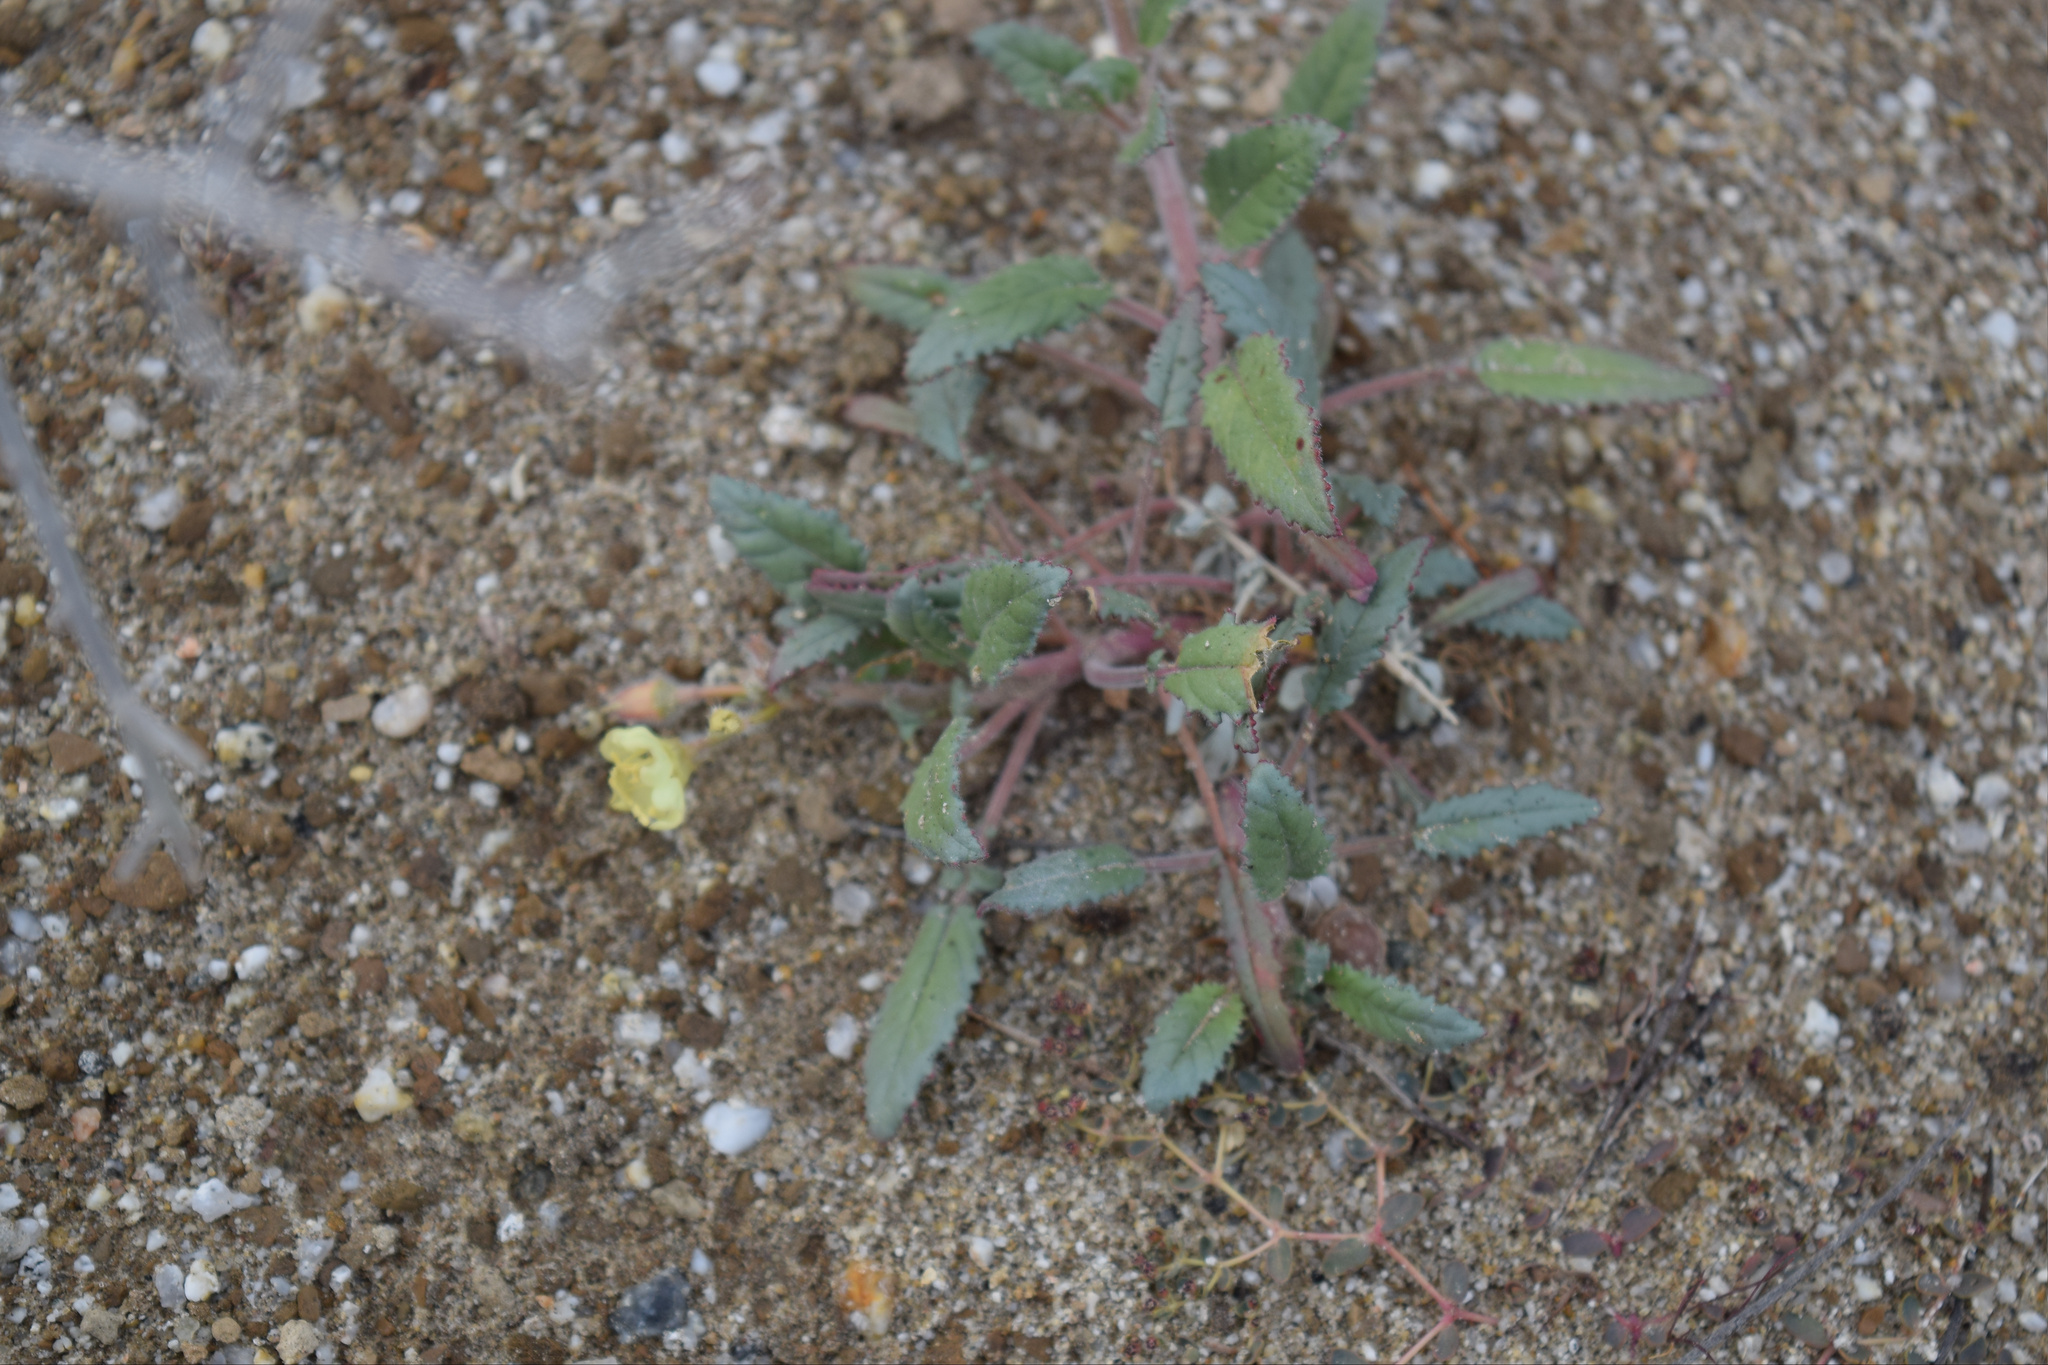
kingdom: Plantae
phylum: Tracheophyta
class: Magnoliopsida
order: Myrtales
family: Onagraceae
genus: Chylismia
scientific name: Chylismia claviformis
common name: Browneyes
